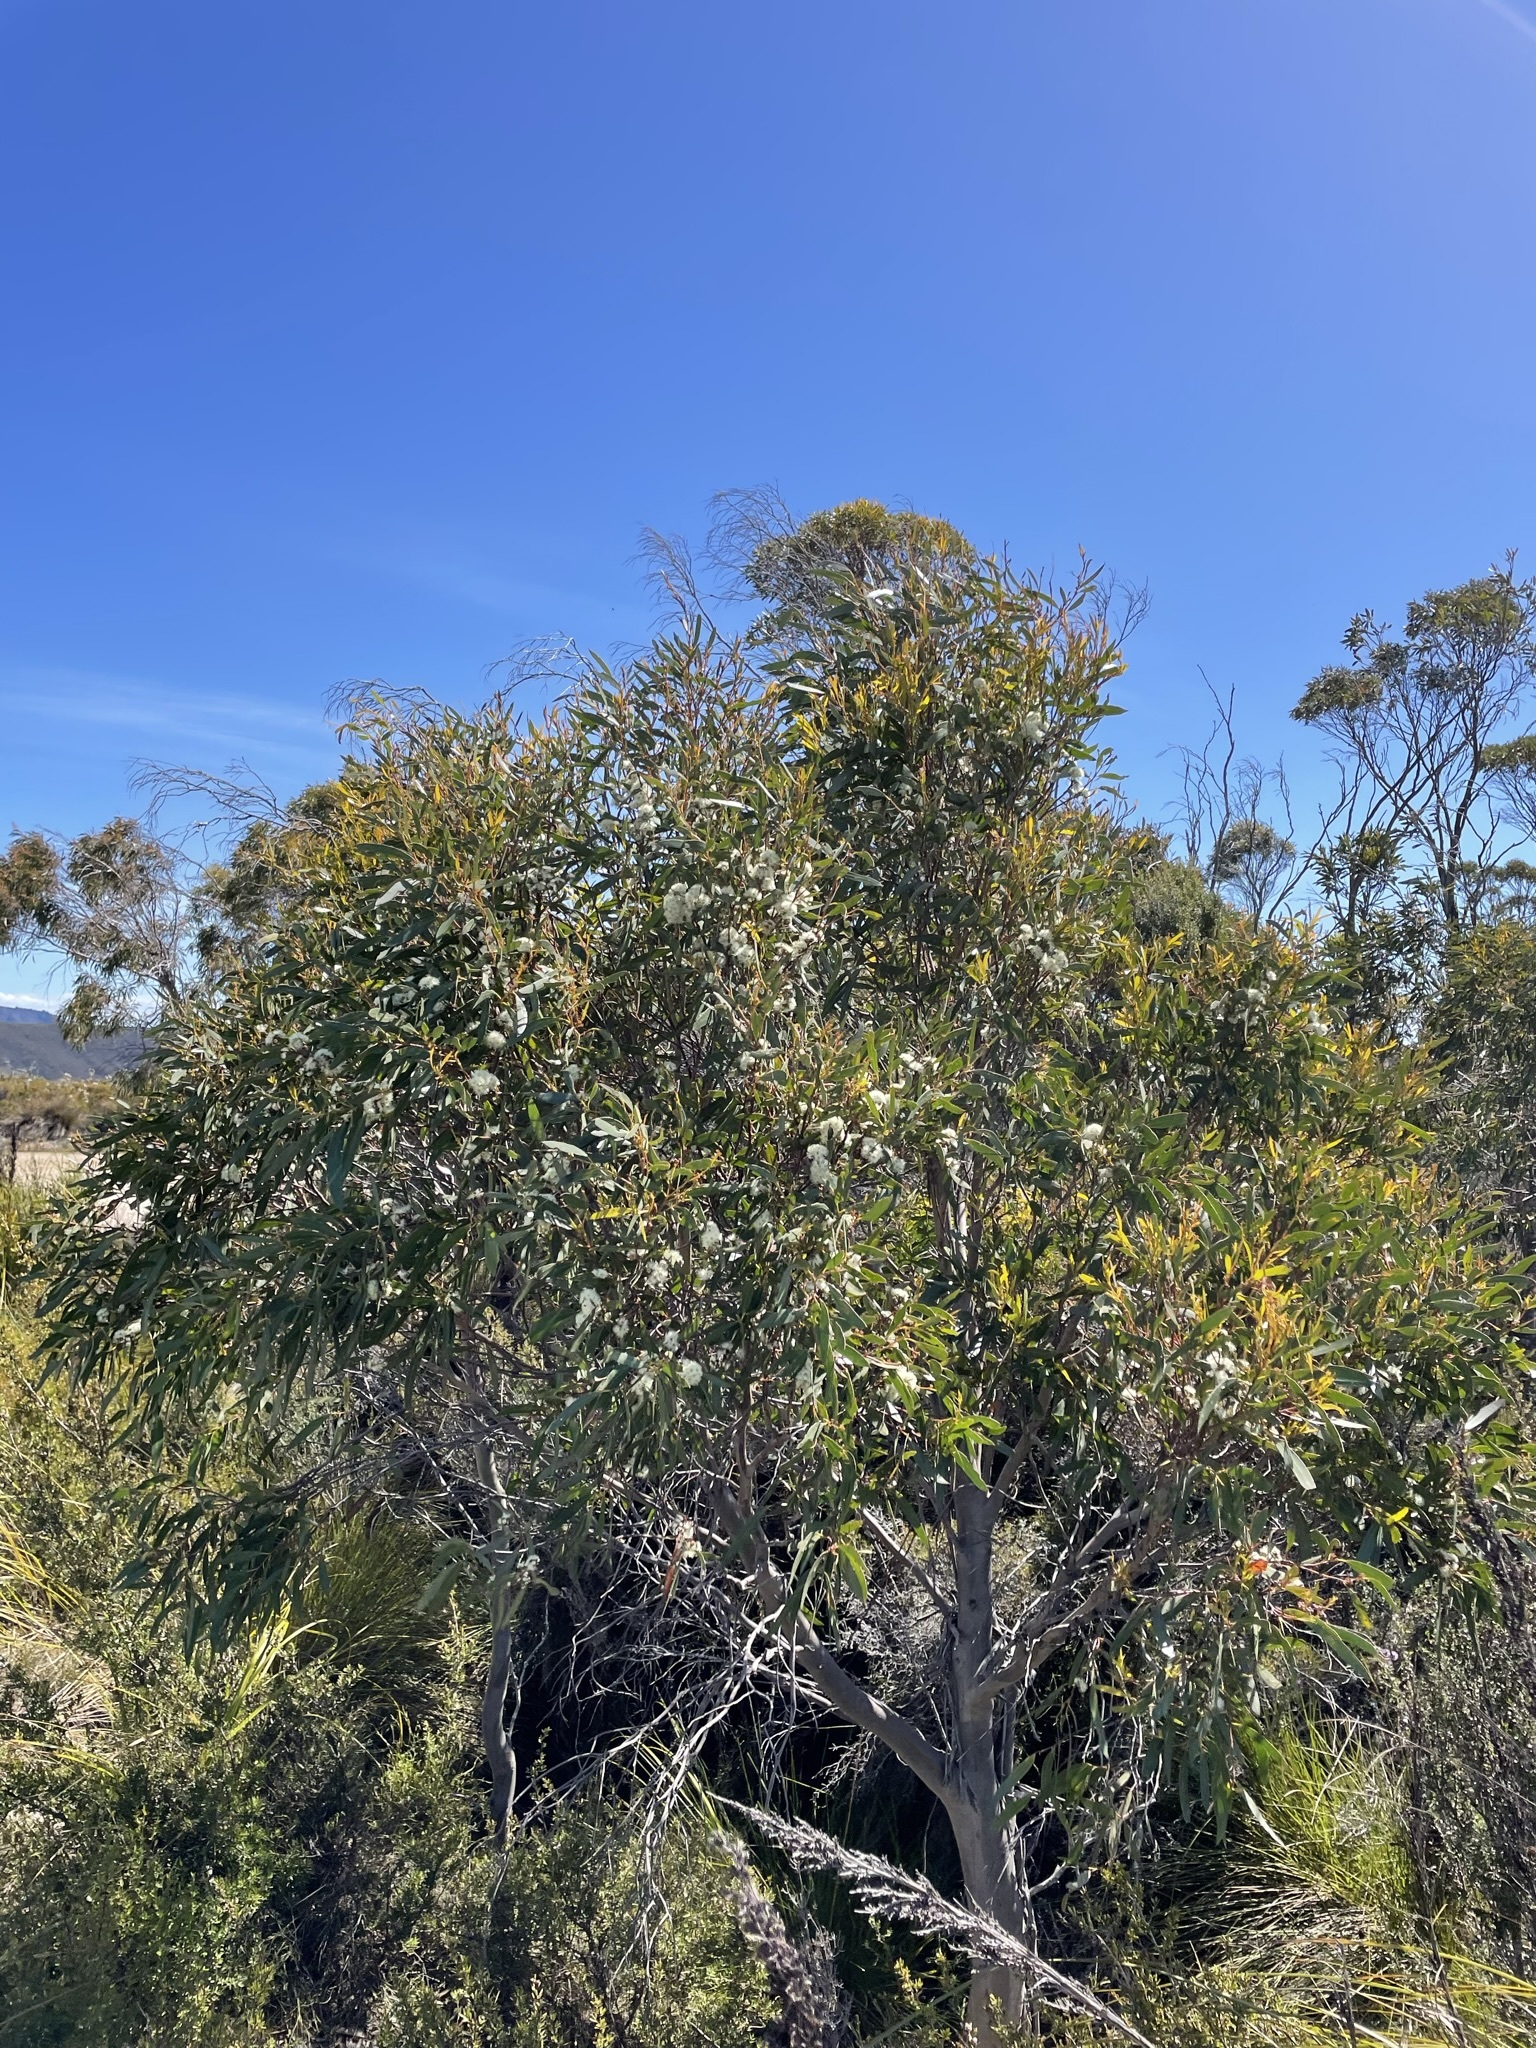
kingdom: Plantae
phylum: Tracheophyta
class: Magnoliopsida
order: Myrtales
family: Myrtaceae
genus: Eucalyptus
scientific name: Eucalyptus nitida
